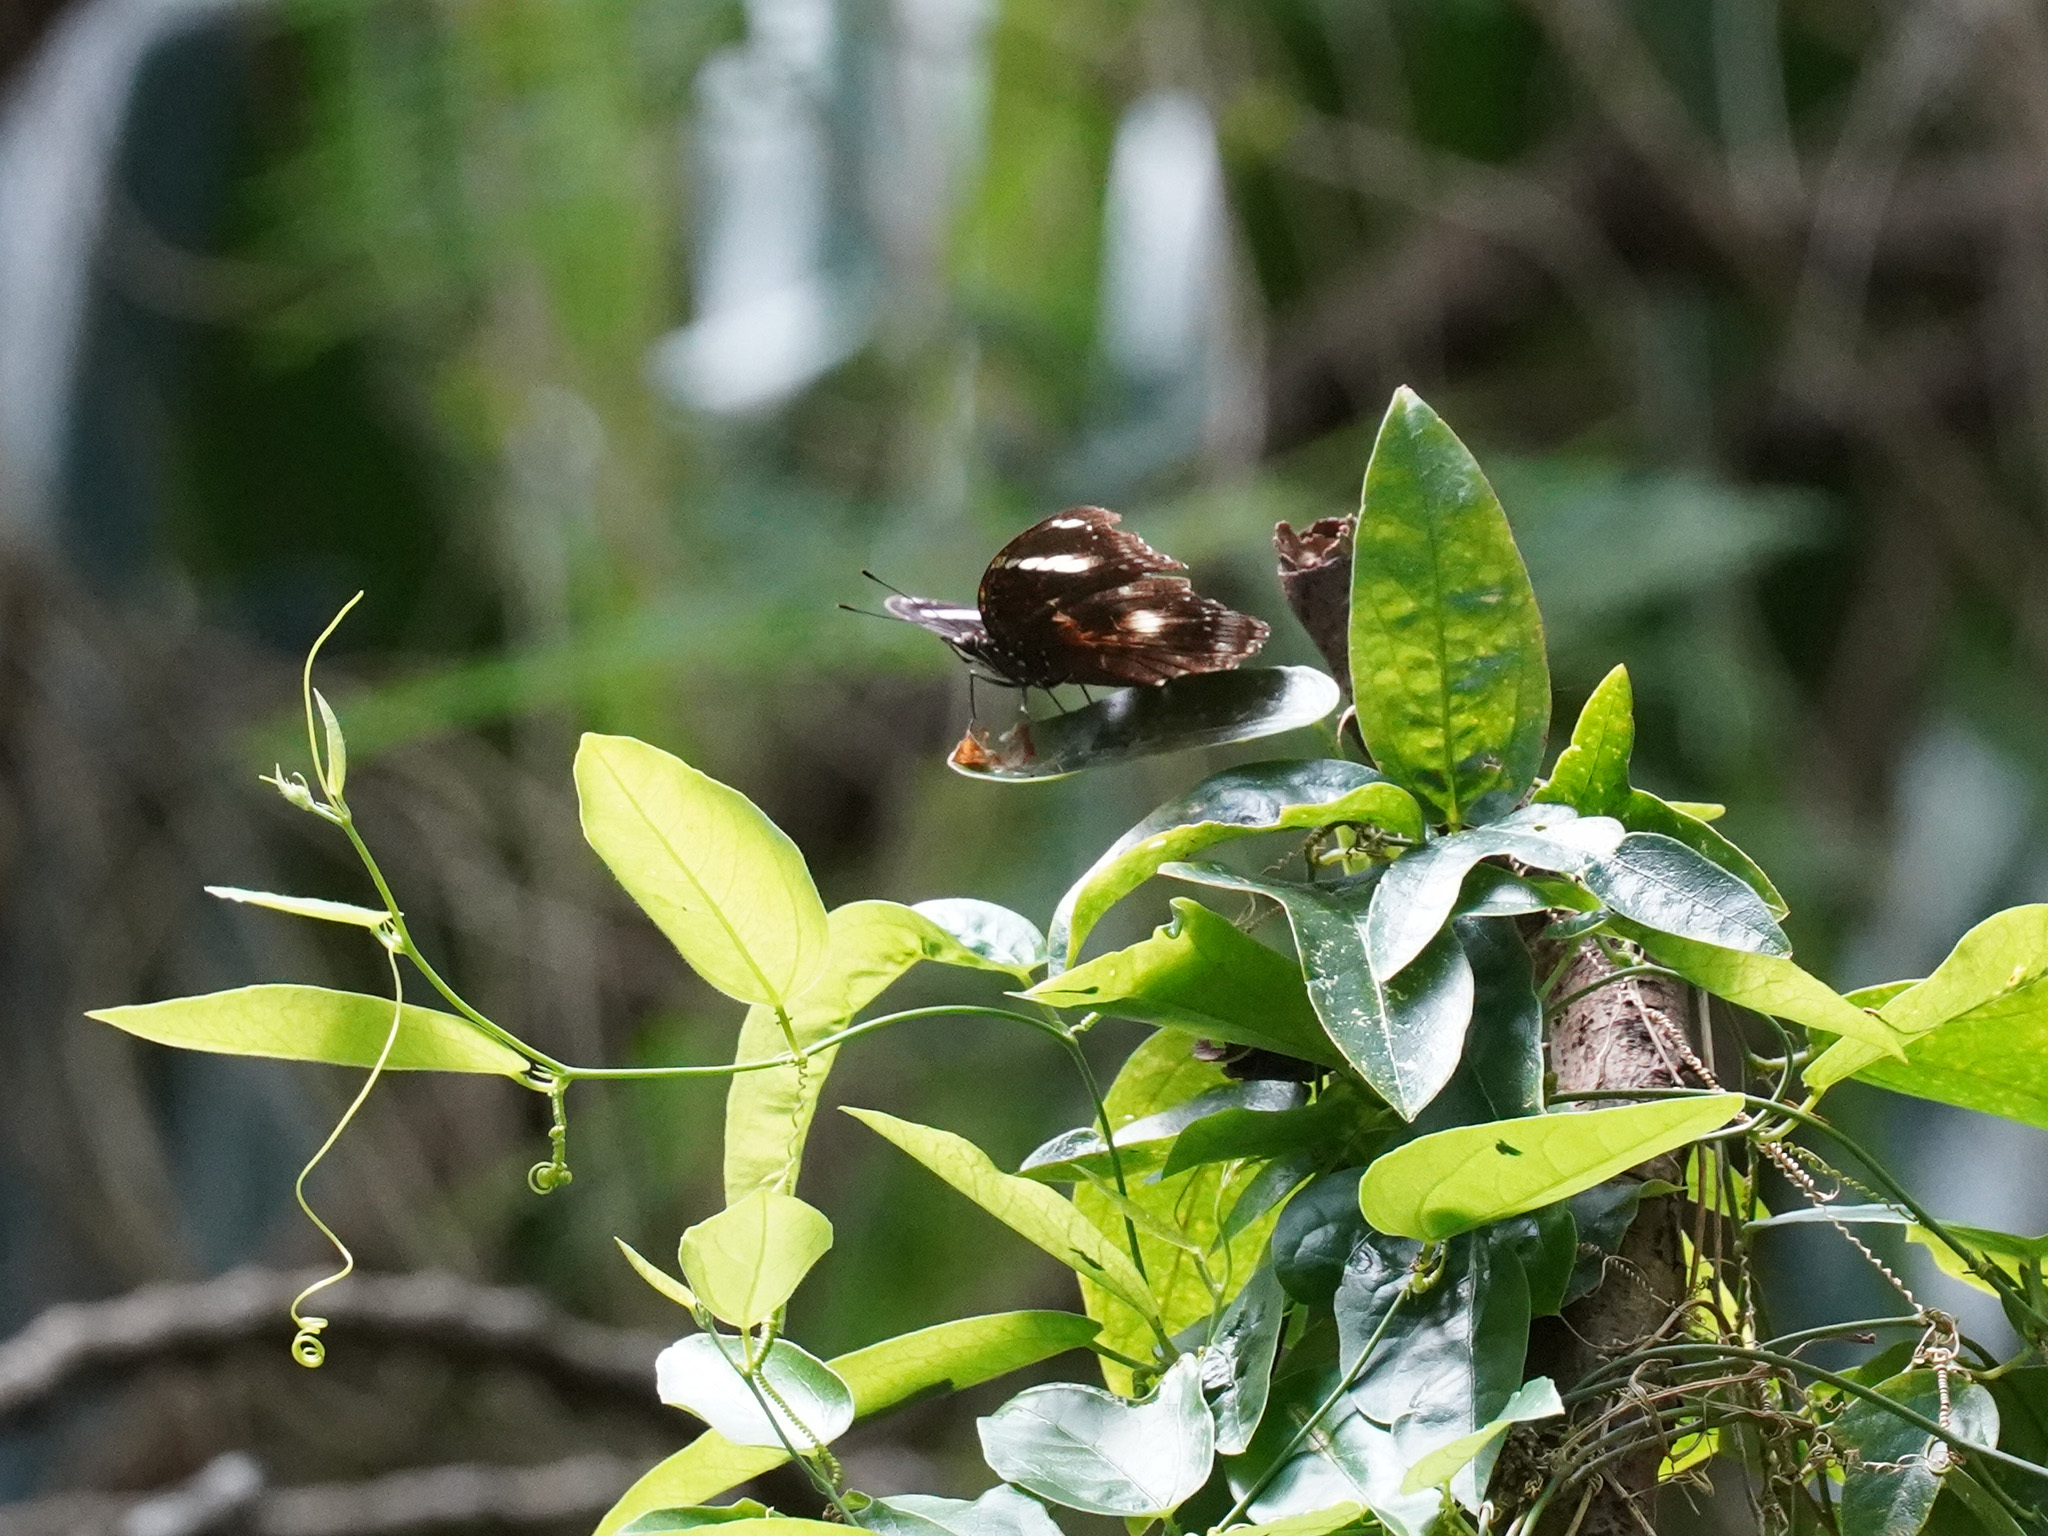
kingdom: Animalia
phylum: Arthropoda
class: Insecta
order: Lepidoptera
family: Nymphalidae
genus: Hypolimnas
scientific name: Hypolimnas bolina
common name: Great eggfly
